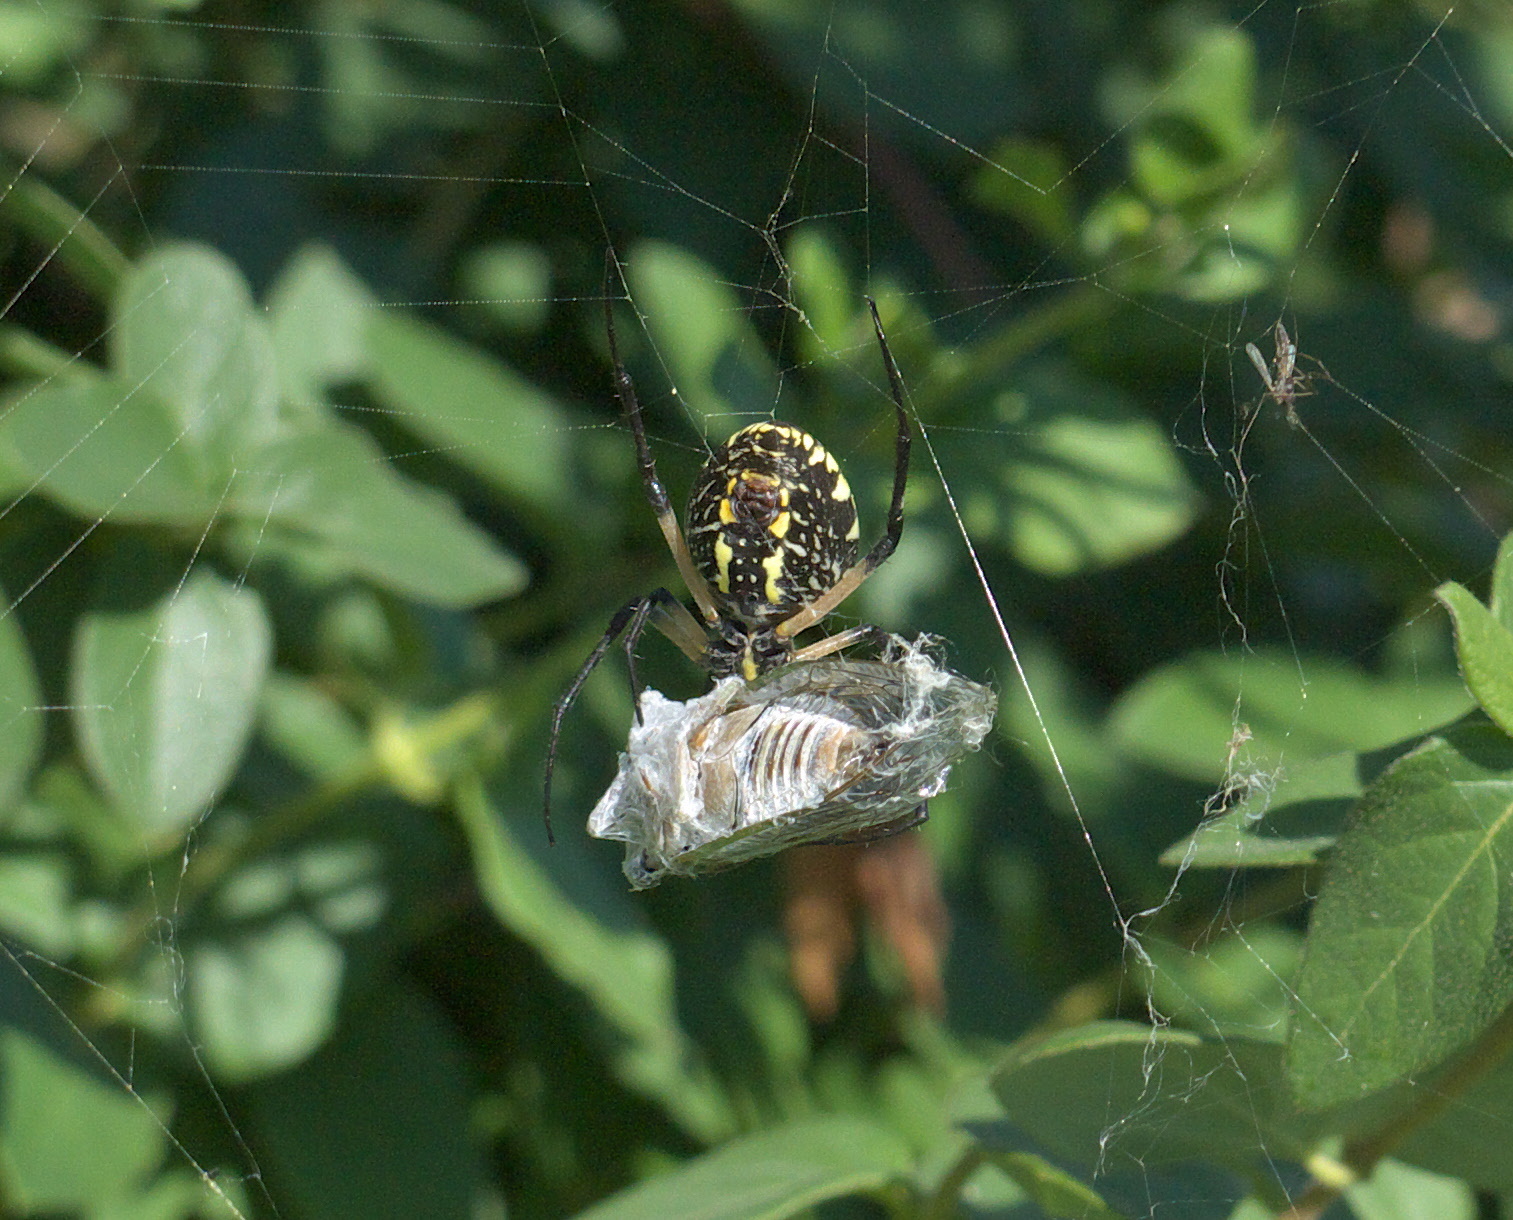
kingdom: Animalia
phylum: Arthropoda
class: Arachnida
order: Araneae
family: Araneidae
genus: Argiope
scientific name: Argiope aurantia
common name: Orb weavers
